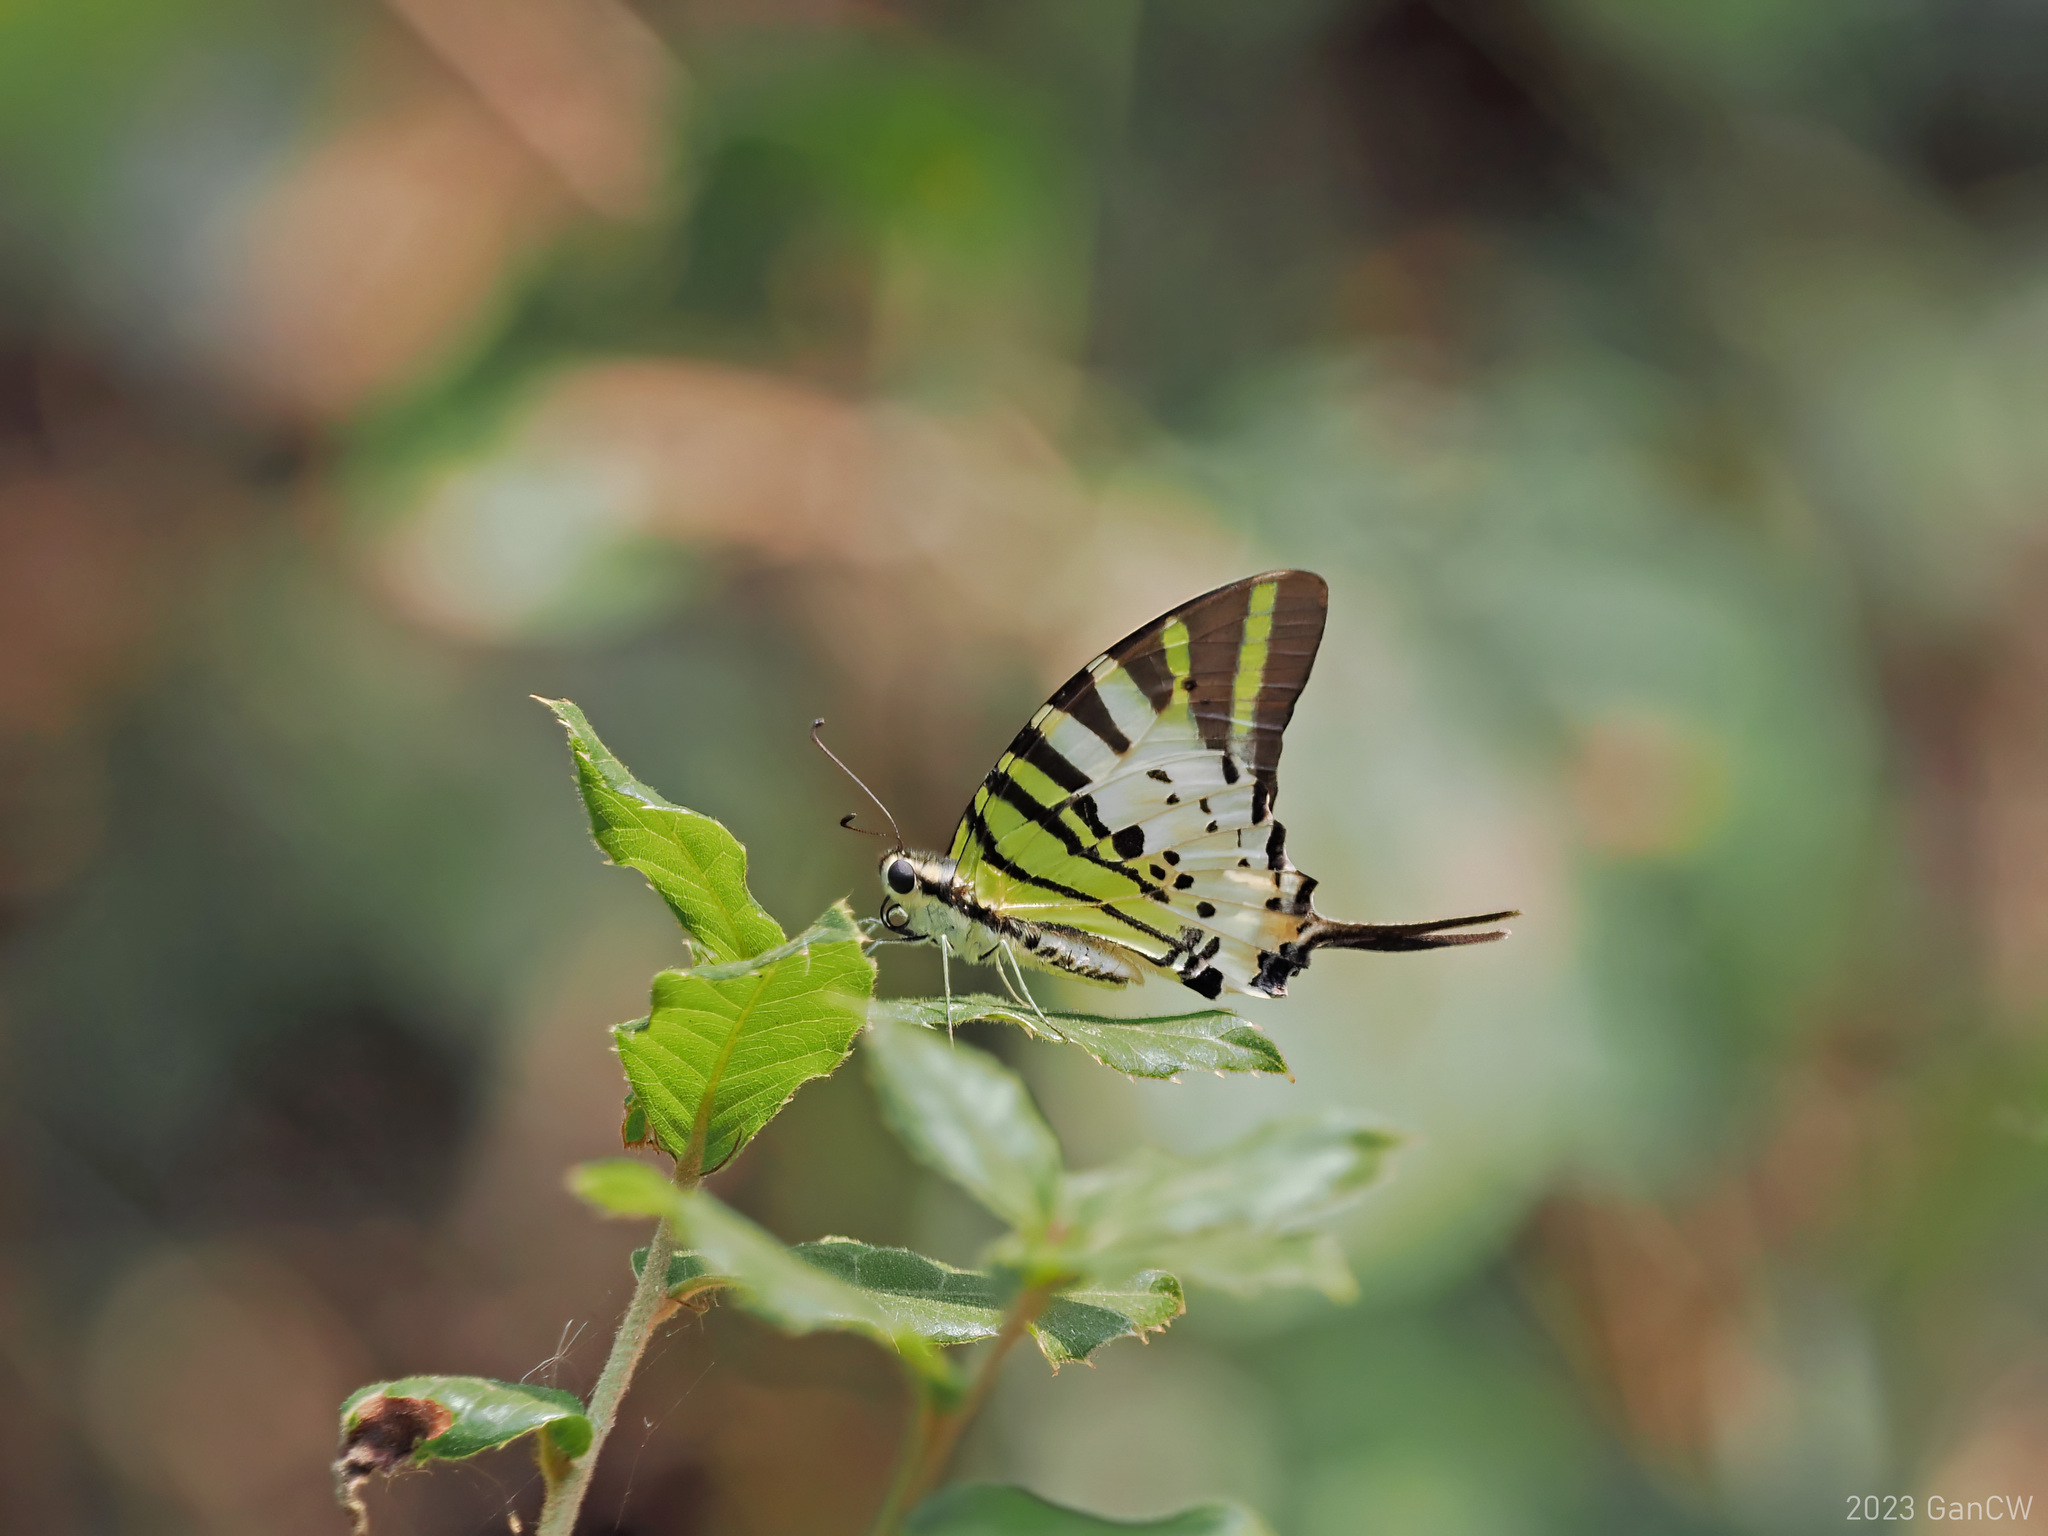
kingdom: Animalia
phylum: Arthropoda
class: Insecta
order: Lepidoptera
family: Papilionidae
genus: Graphium
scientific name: Graphium antiphates
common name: Fivebar swordtail
